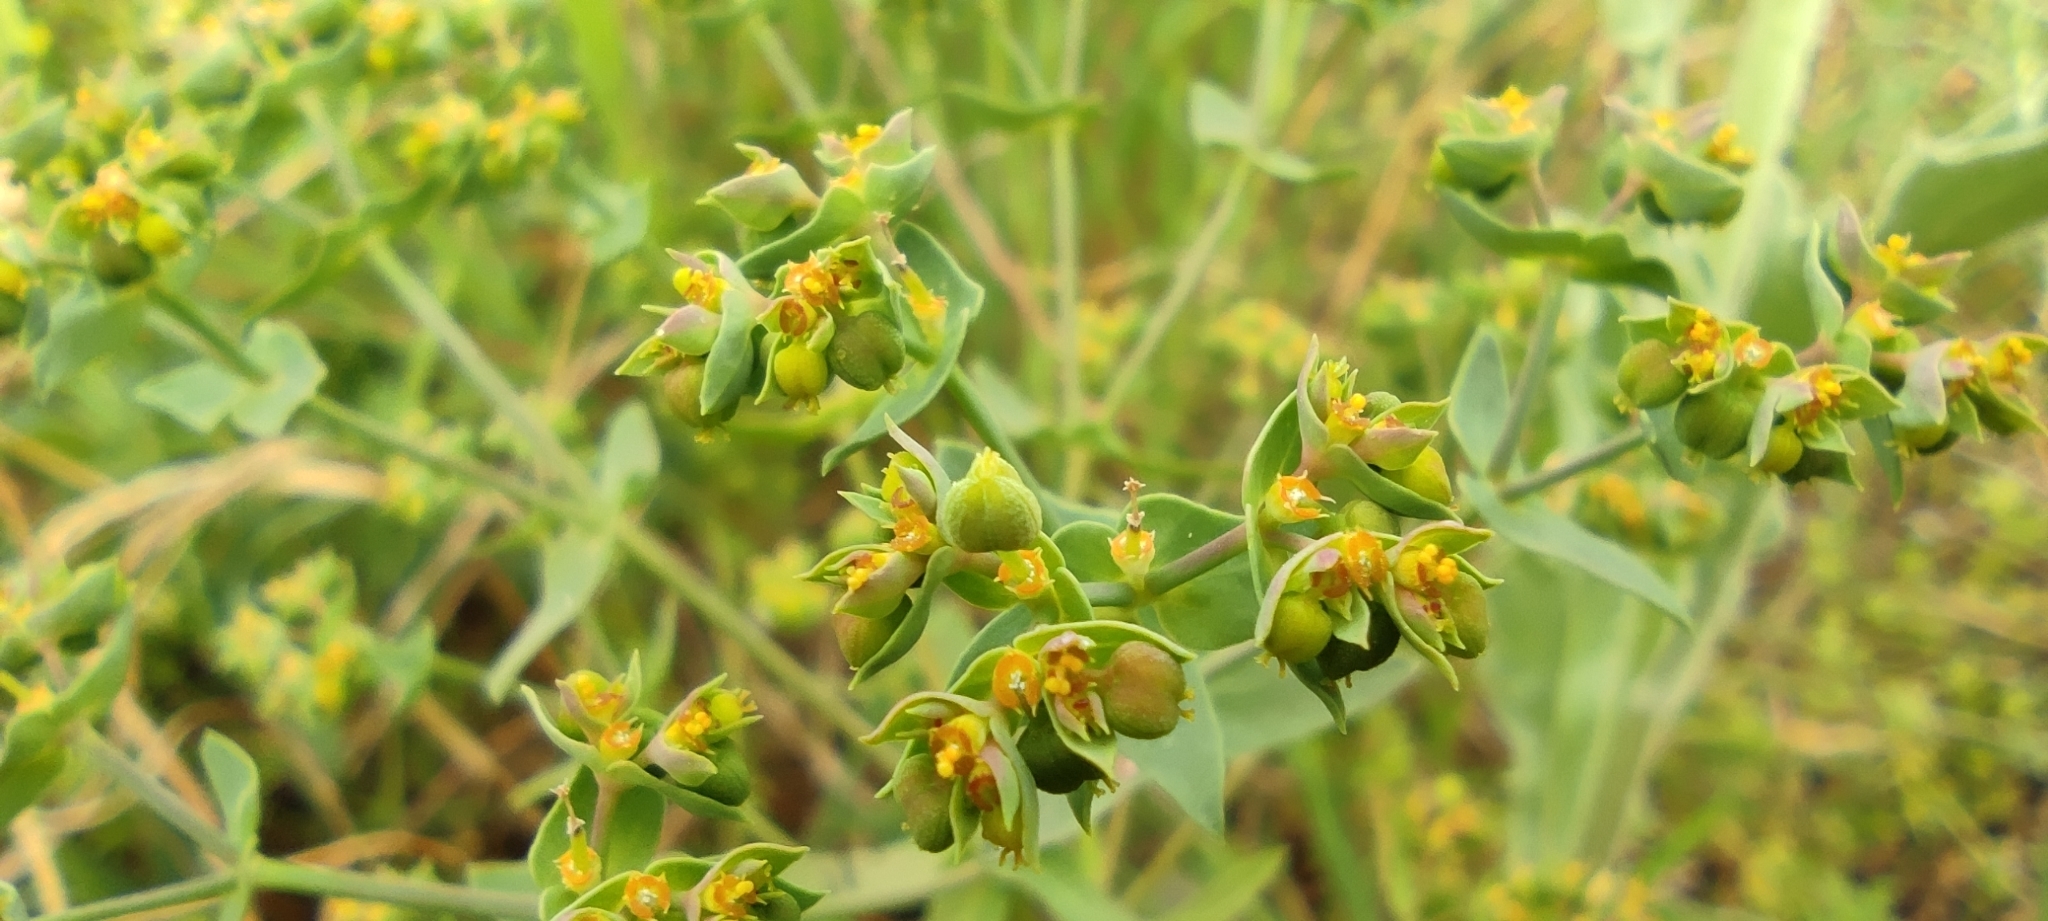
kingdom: Plantae
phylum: Tracheophyta
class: Magnoliopsida
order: Malpighiales
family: Euphorbiaceae
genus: Euphorbia
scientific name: Euphorbia exigua
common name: Dwarf spurge
